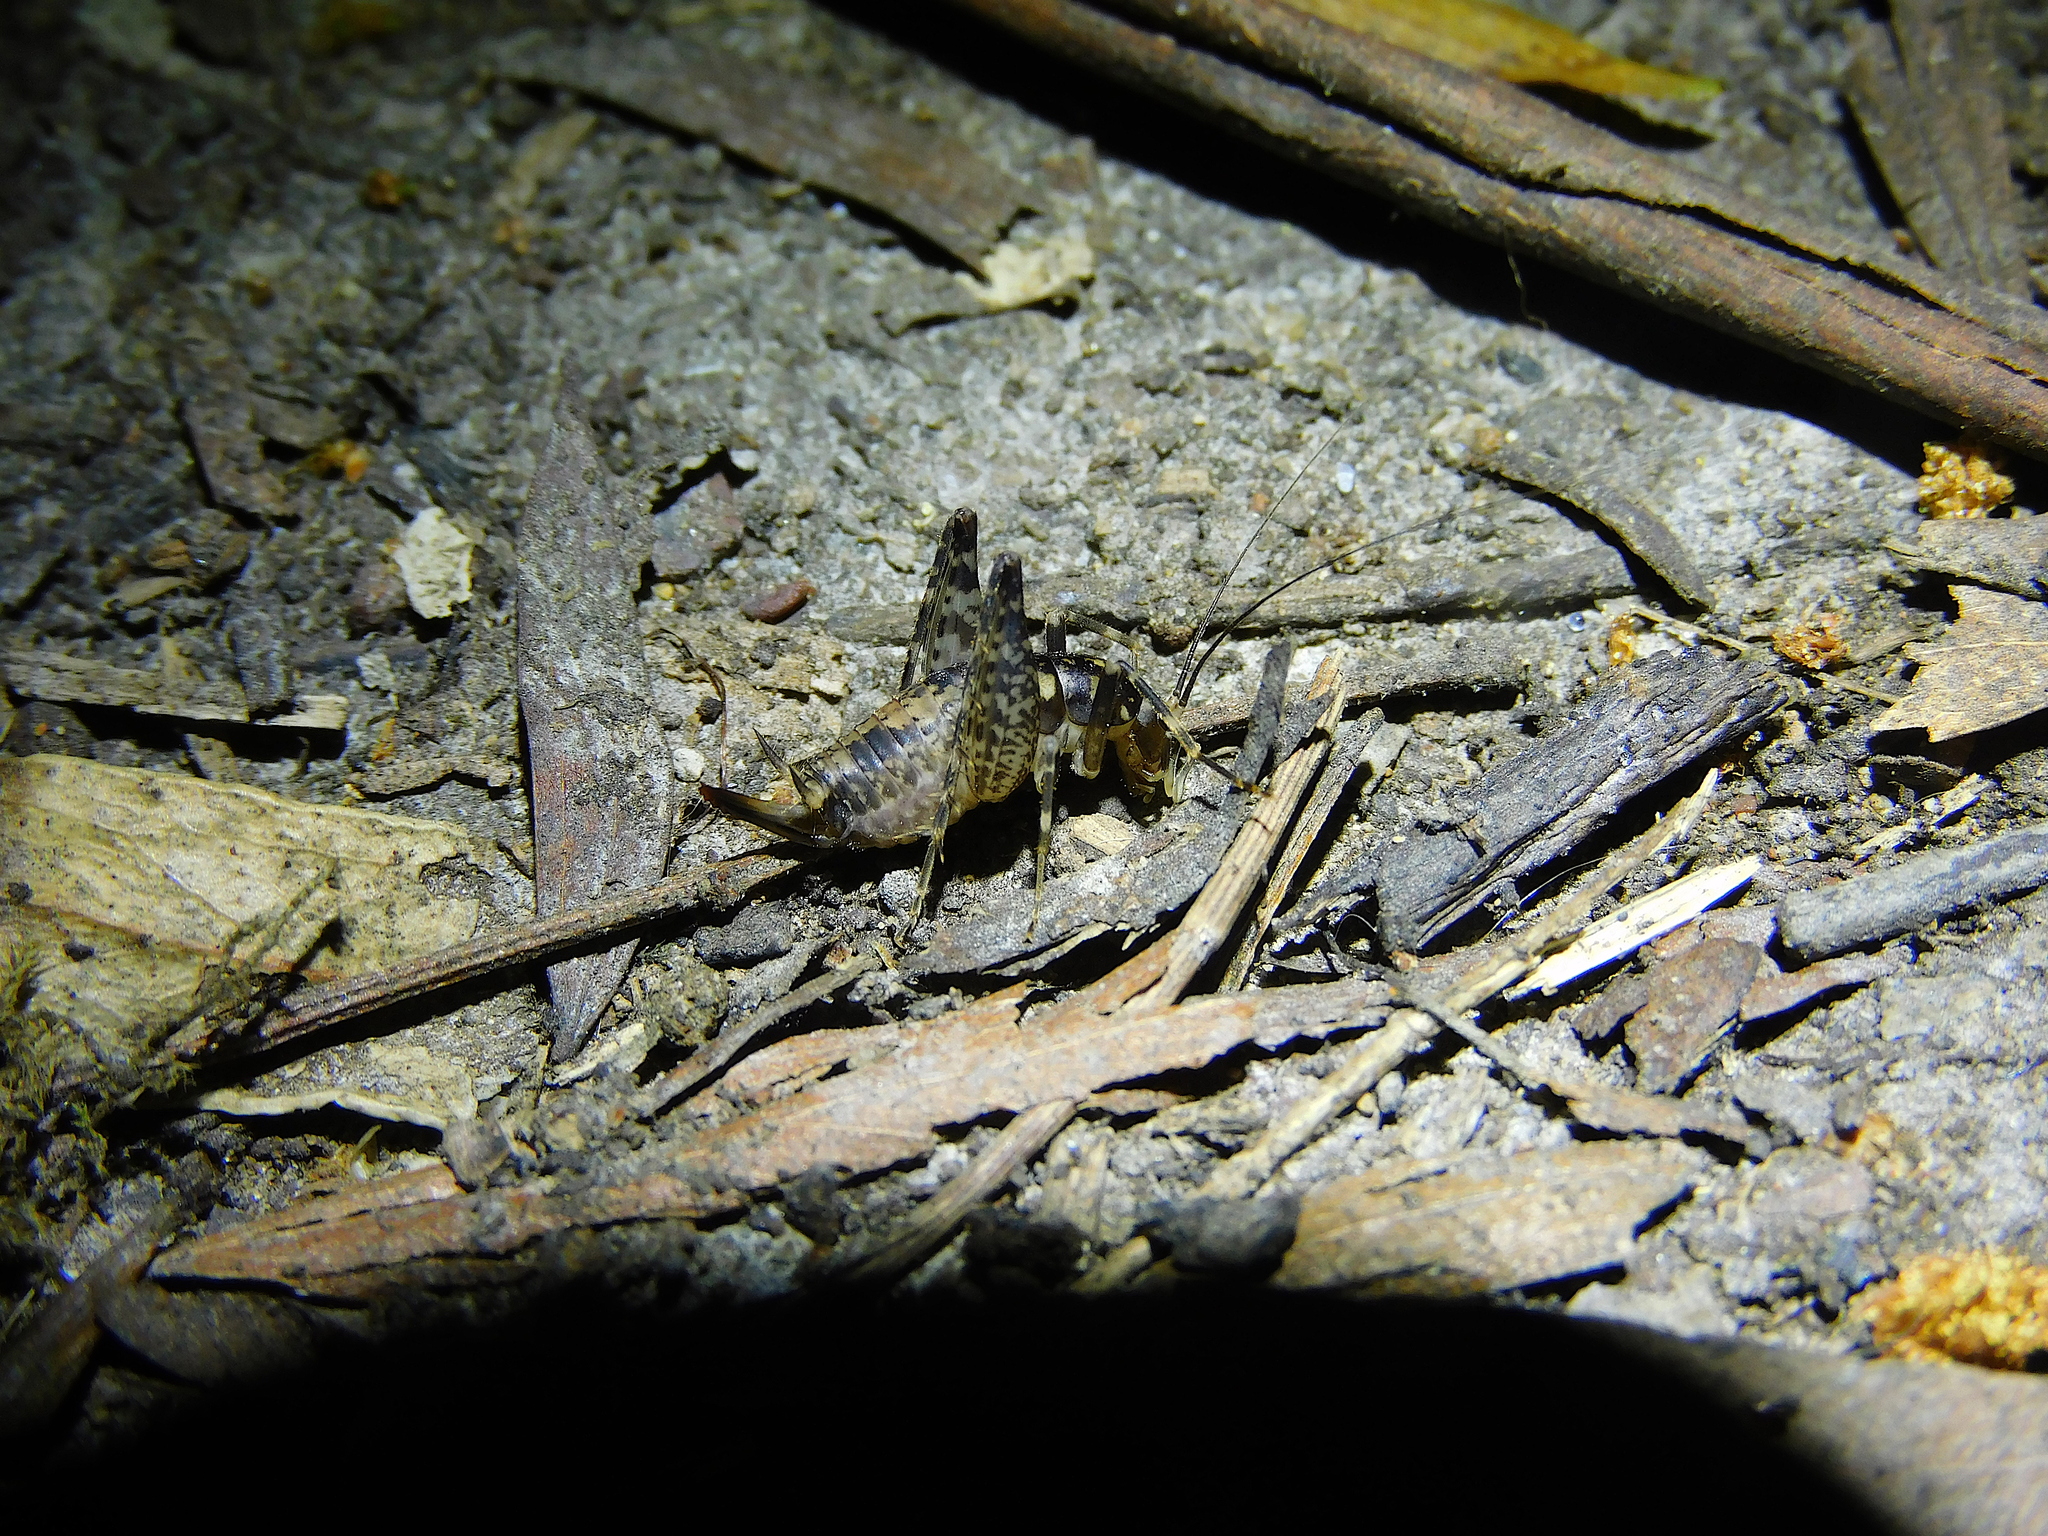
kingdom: Animalia
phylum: Arthropoda
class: Insecta
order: Orthoptera
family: Rhaphidophoridae
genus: Parvotettix
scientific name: Parvotettix domesticus
